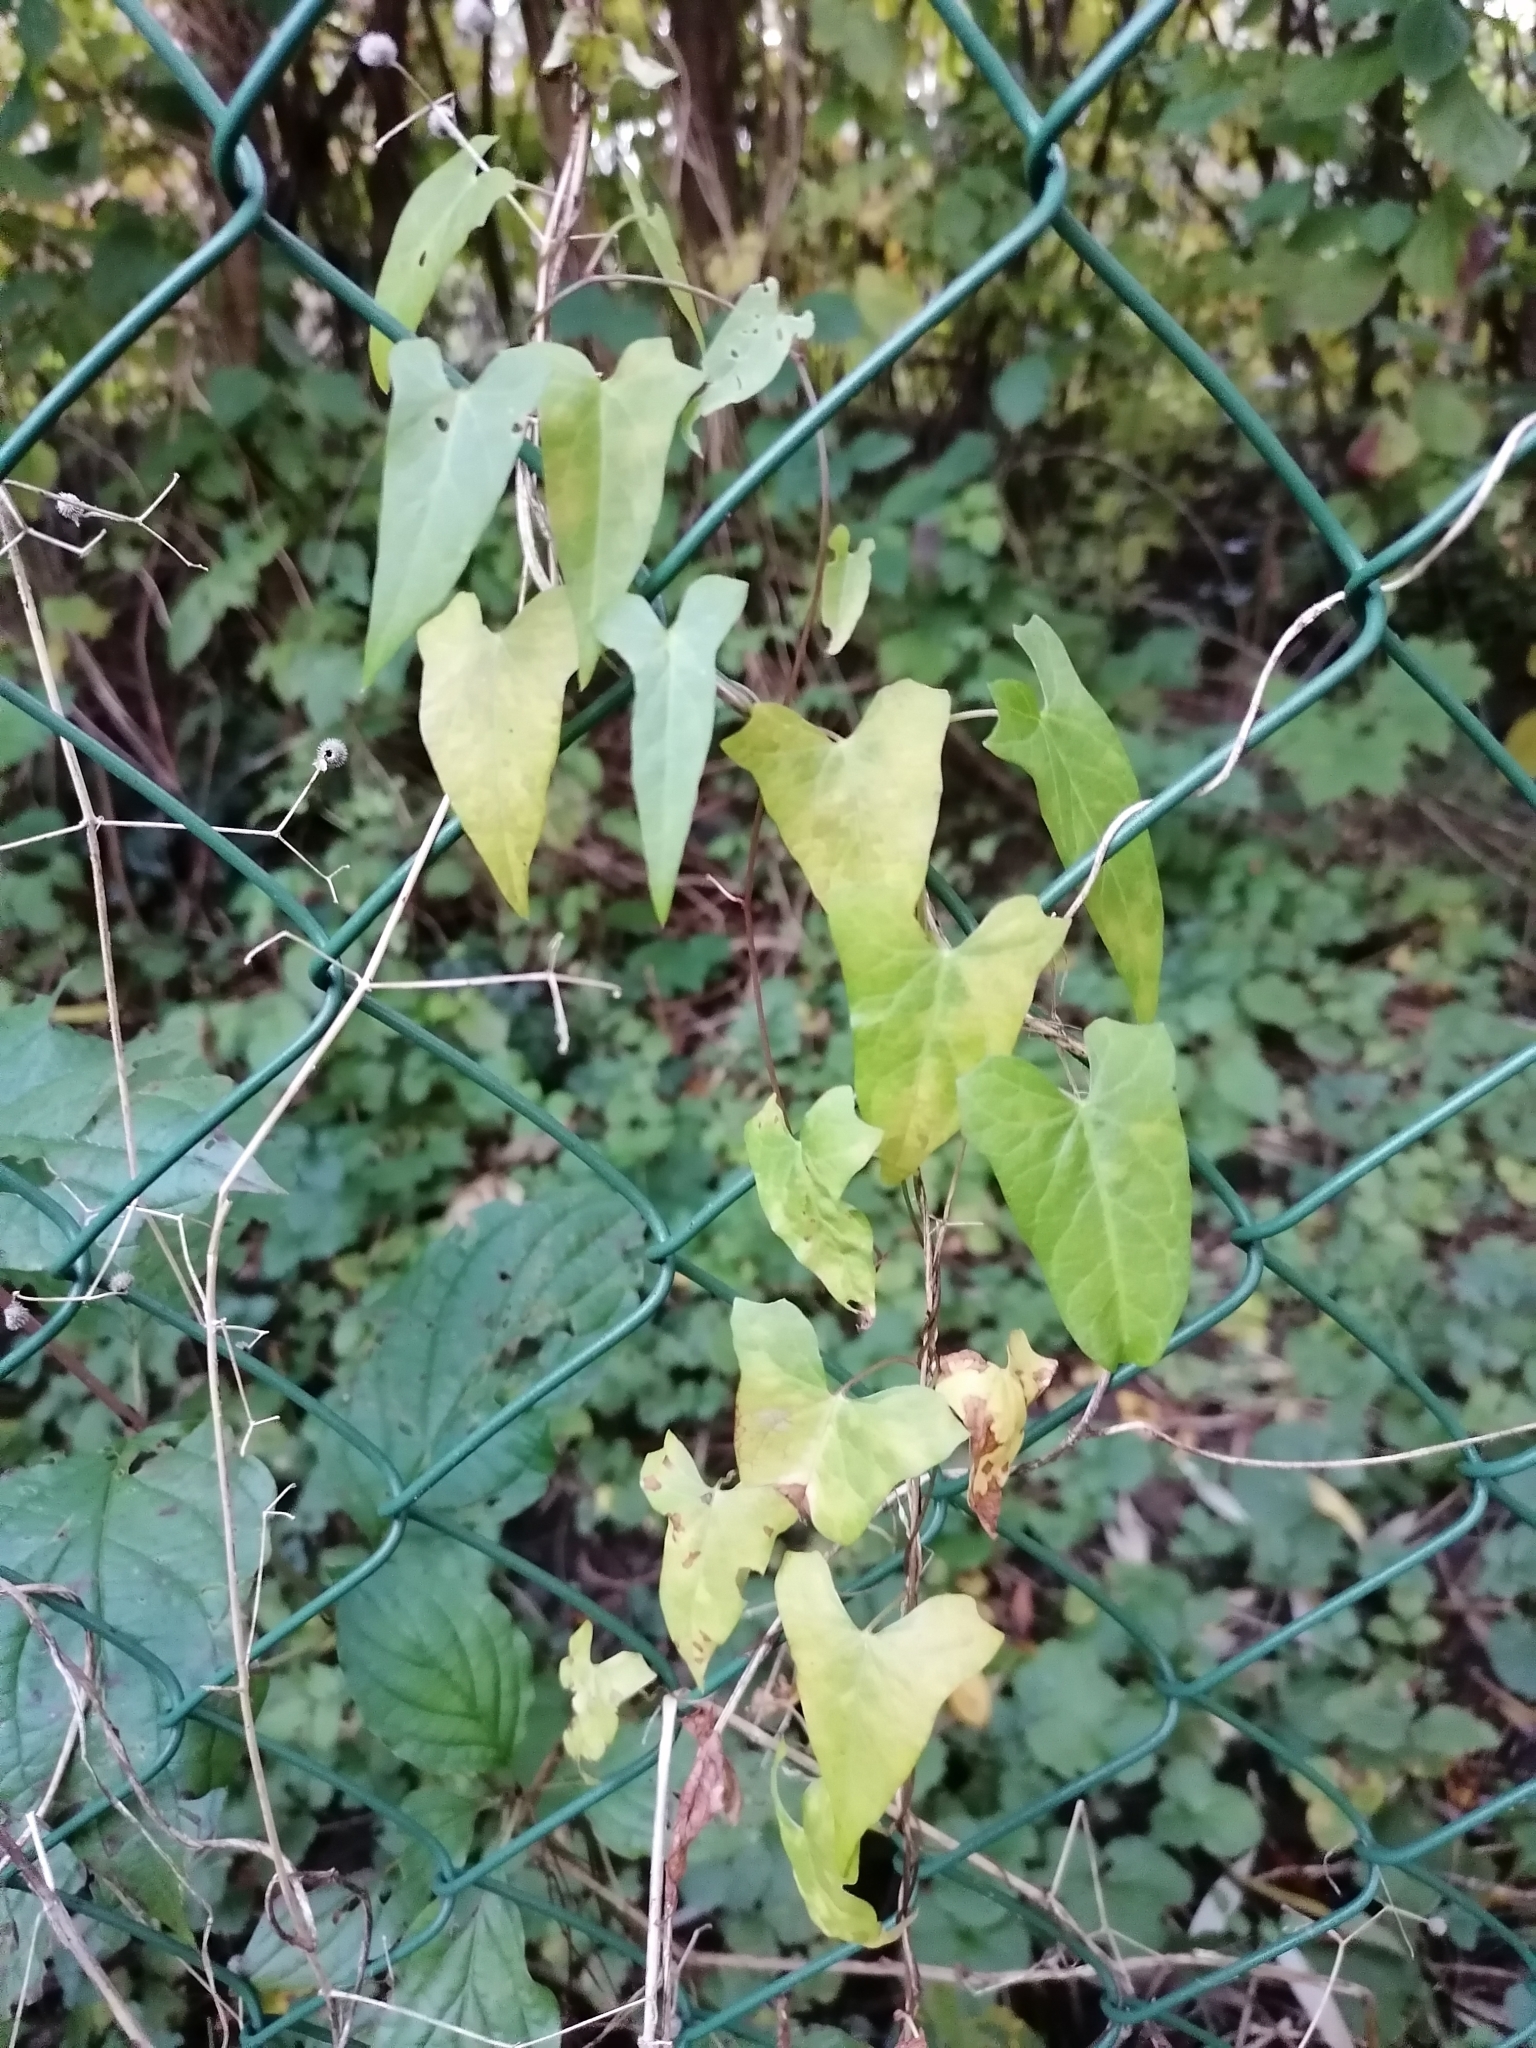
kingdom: Plantae
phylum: Tracheophyta
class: Magnoliopsida
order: Solanales
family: Convolvulaceae
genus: Calystegia
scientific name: Calystegia sepium
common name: Hedge bindweed
